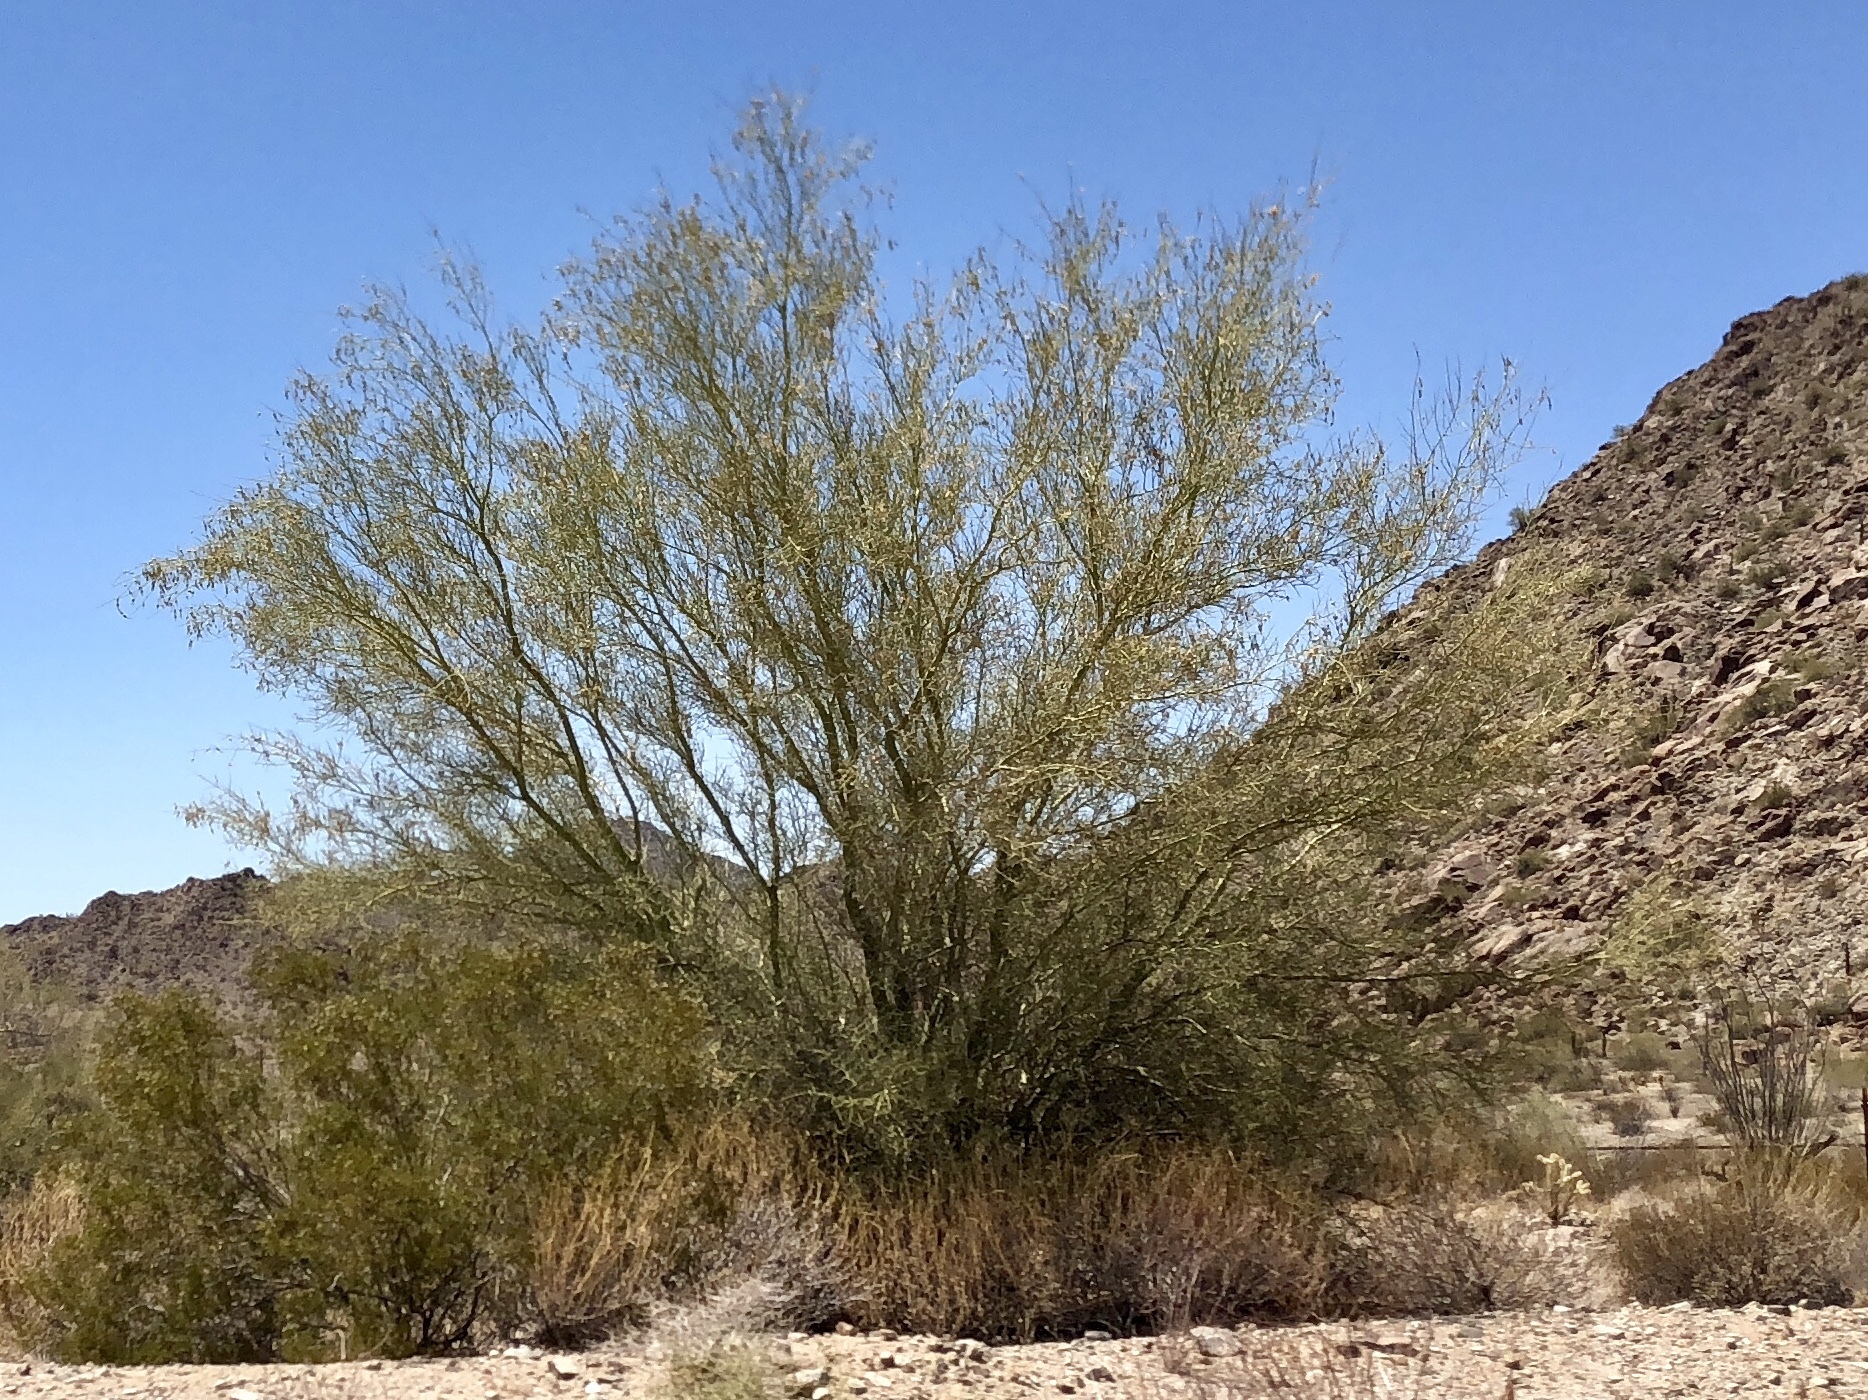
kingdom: Plantae
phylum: Tracheophyta
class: Magnoliopsida
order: Fabales
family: Fabaceae
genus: Parkinsonia
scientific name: Parkinsonia microphylla
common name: Yellow paloverde
